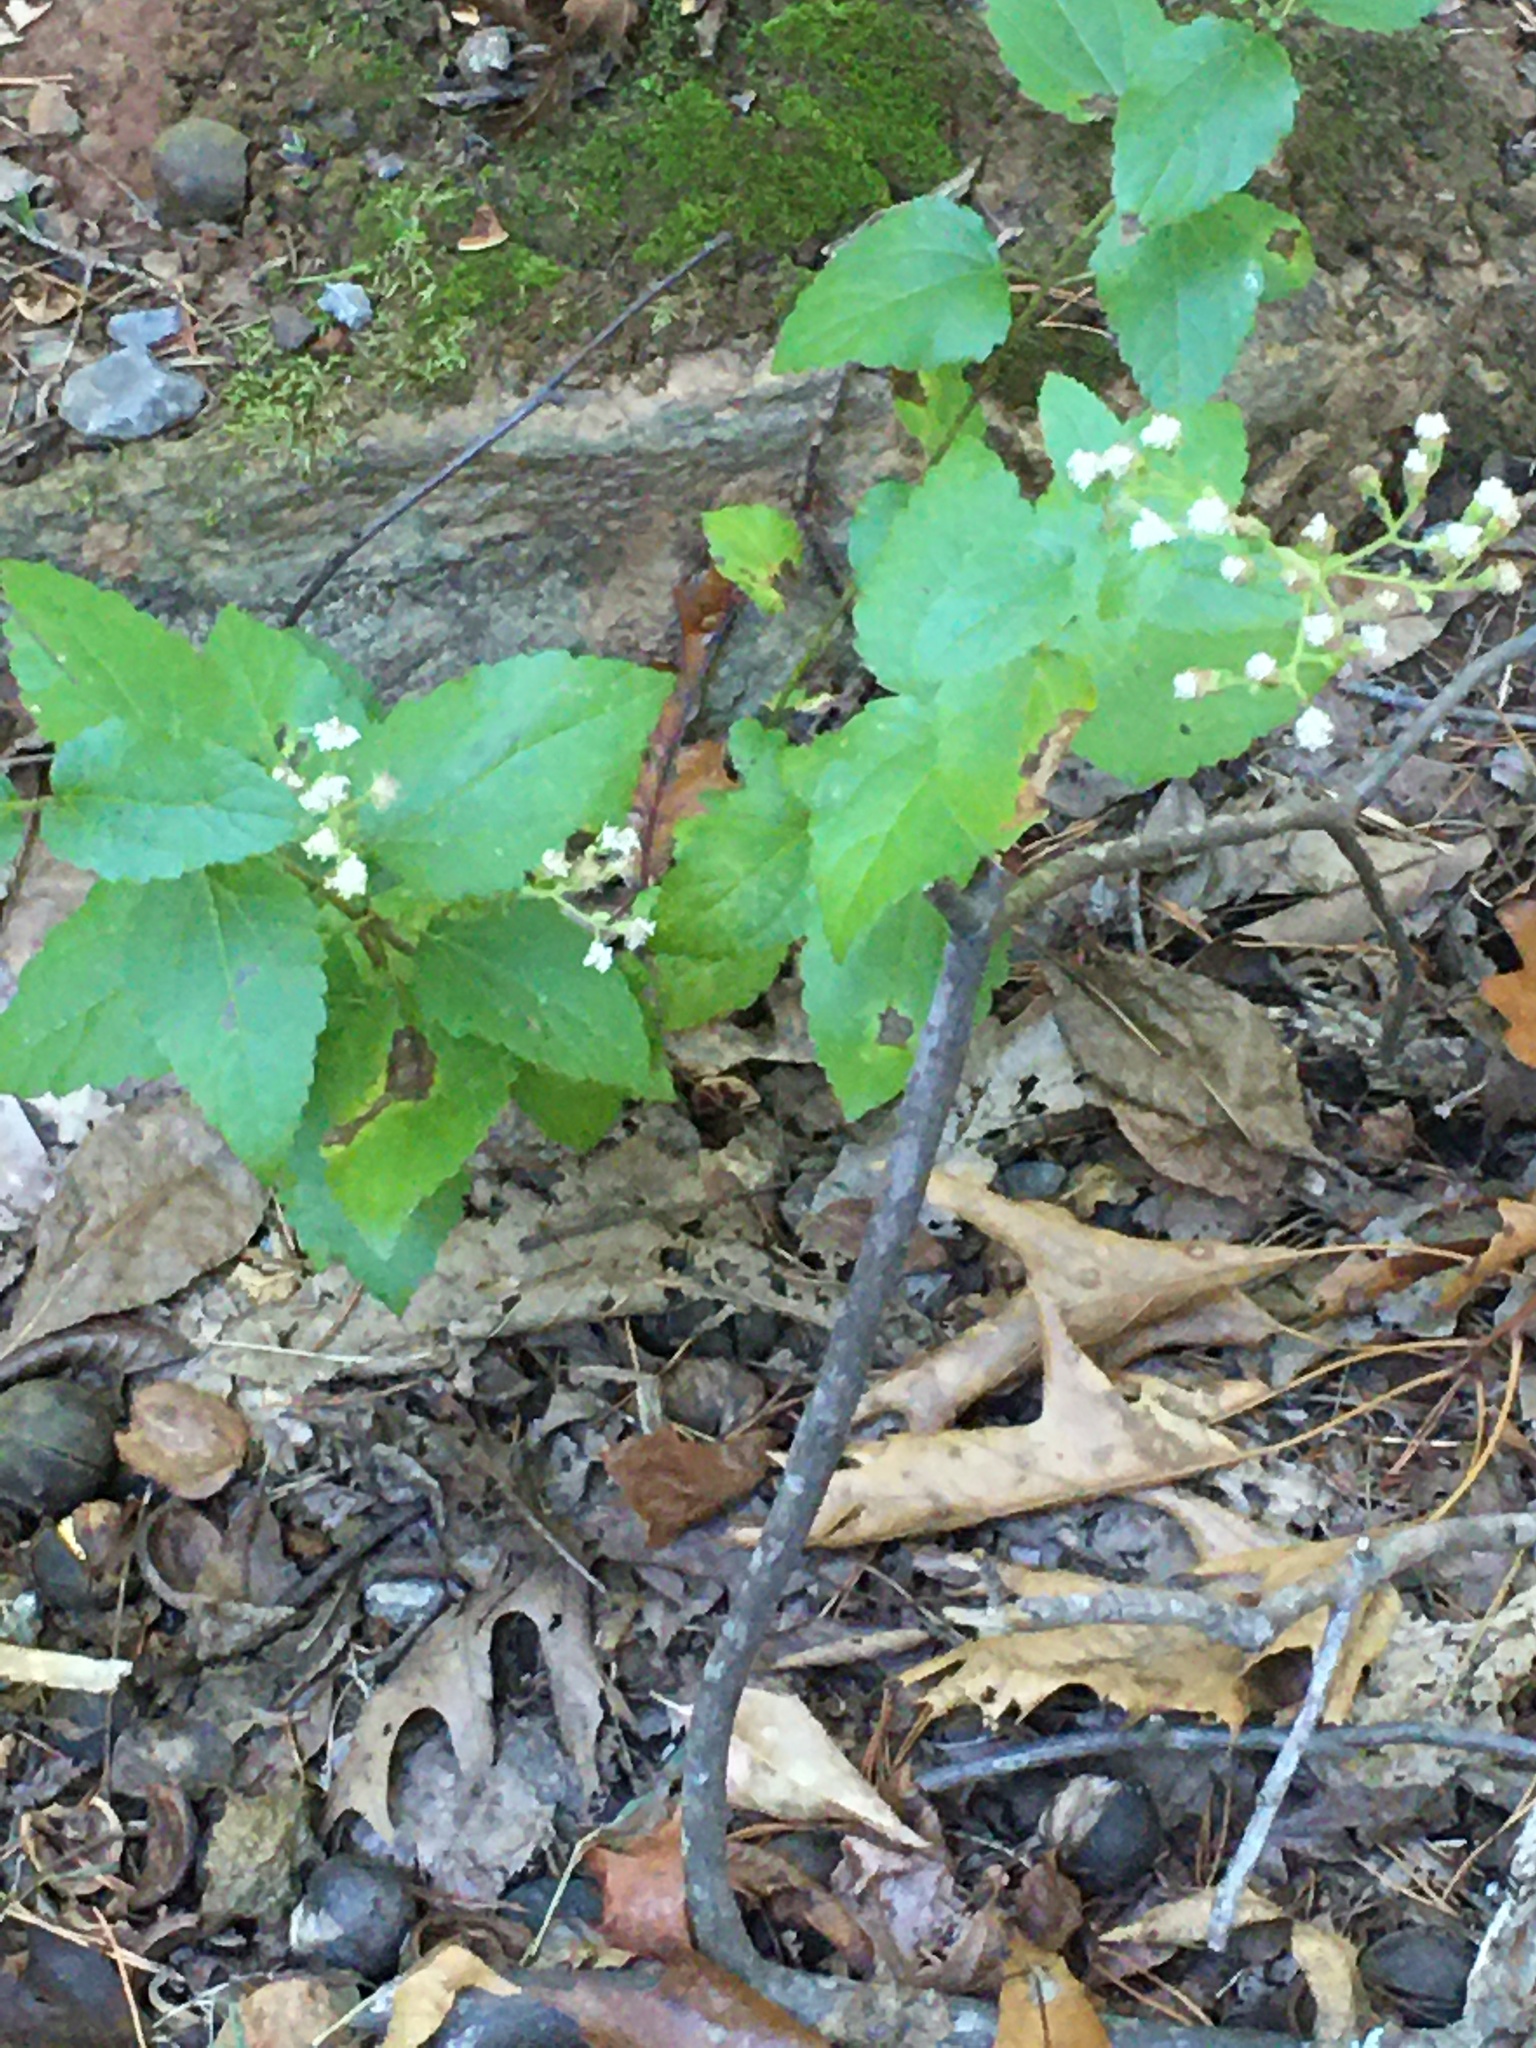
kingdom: Plantae
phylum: Tracheophyta
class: Magnoliopsida
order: Asterales
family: Asteraceae
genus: Ageratina
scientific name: Ageratina aromatica
